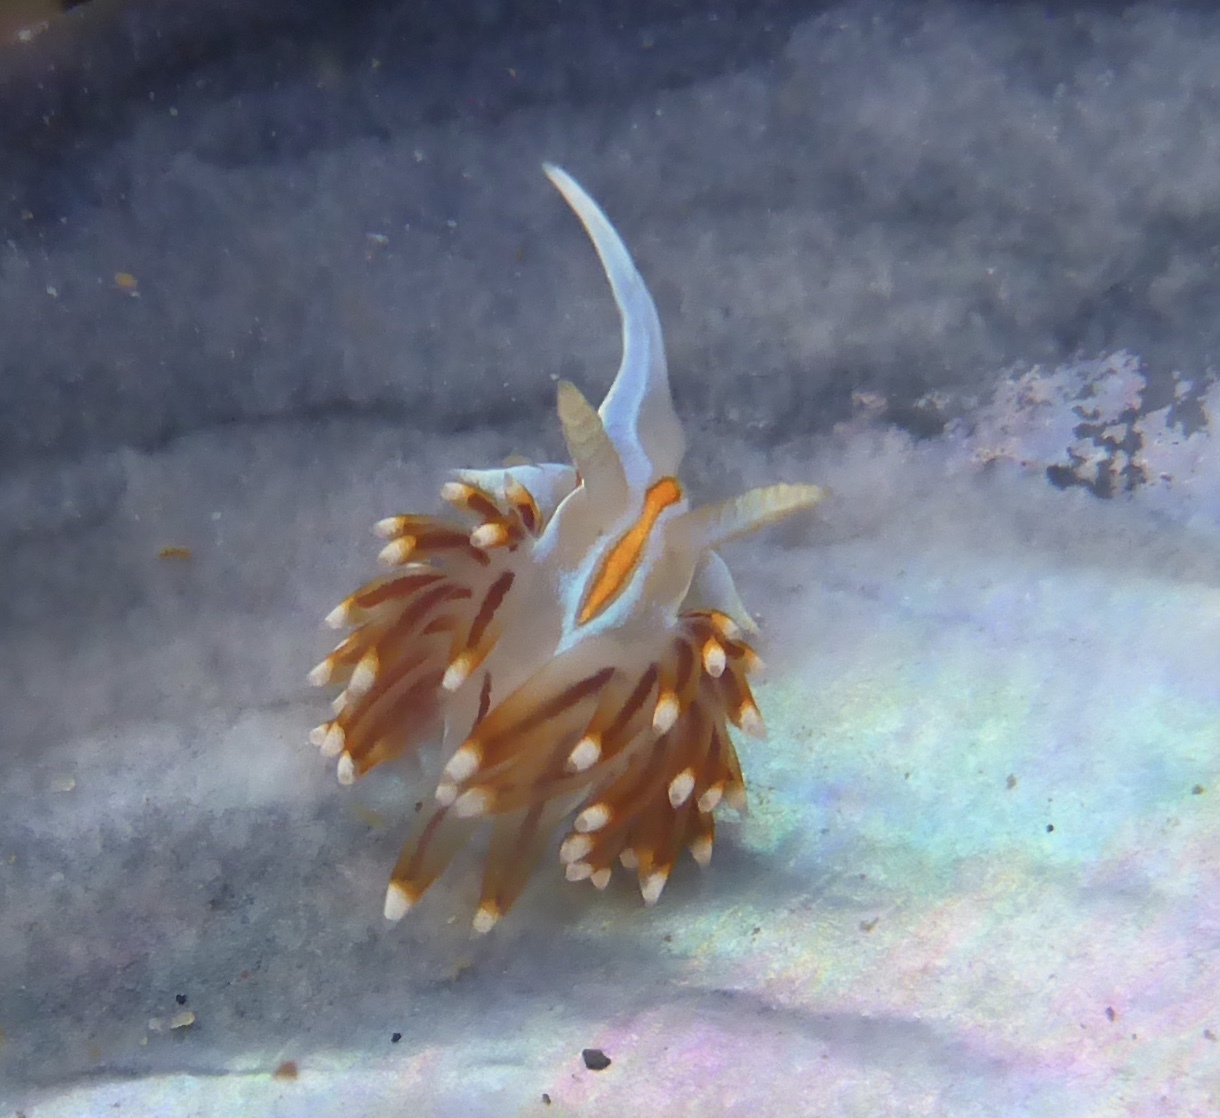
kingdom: Animalia
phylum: Mollusca
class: Gastropoda
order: Nudibranchia
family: Myrrhinidae
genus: Hermissenda
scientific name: Hermissenda opalescens
